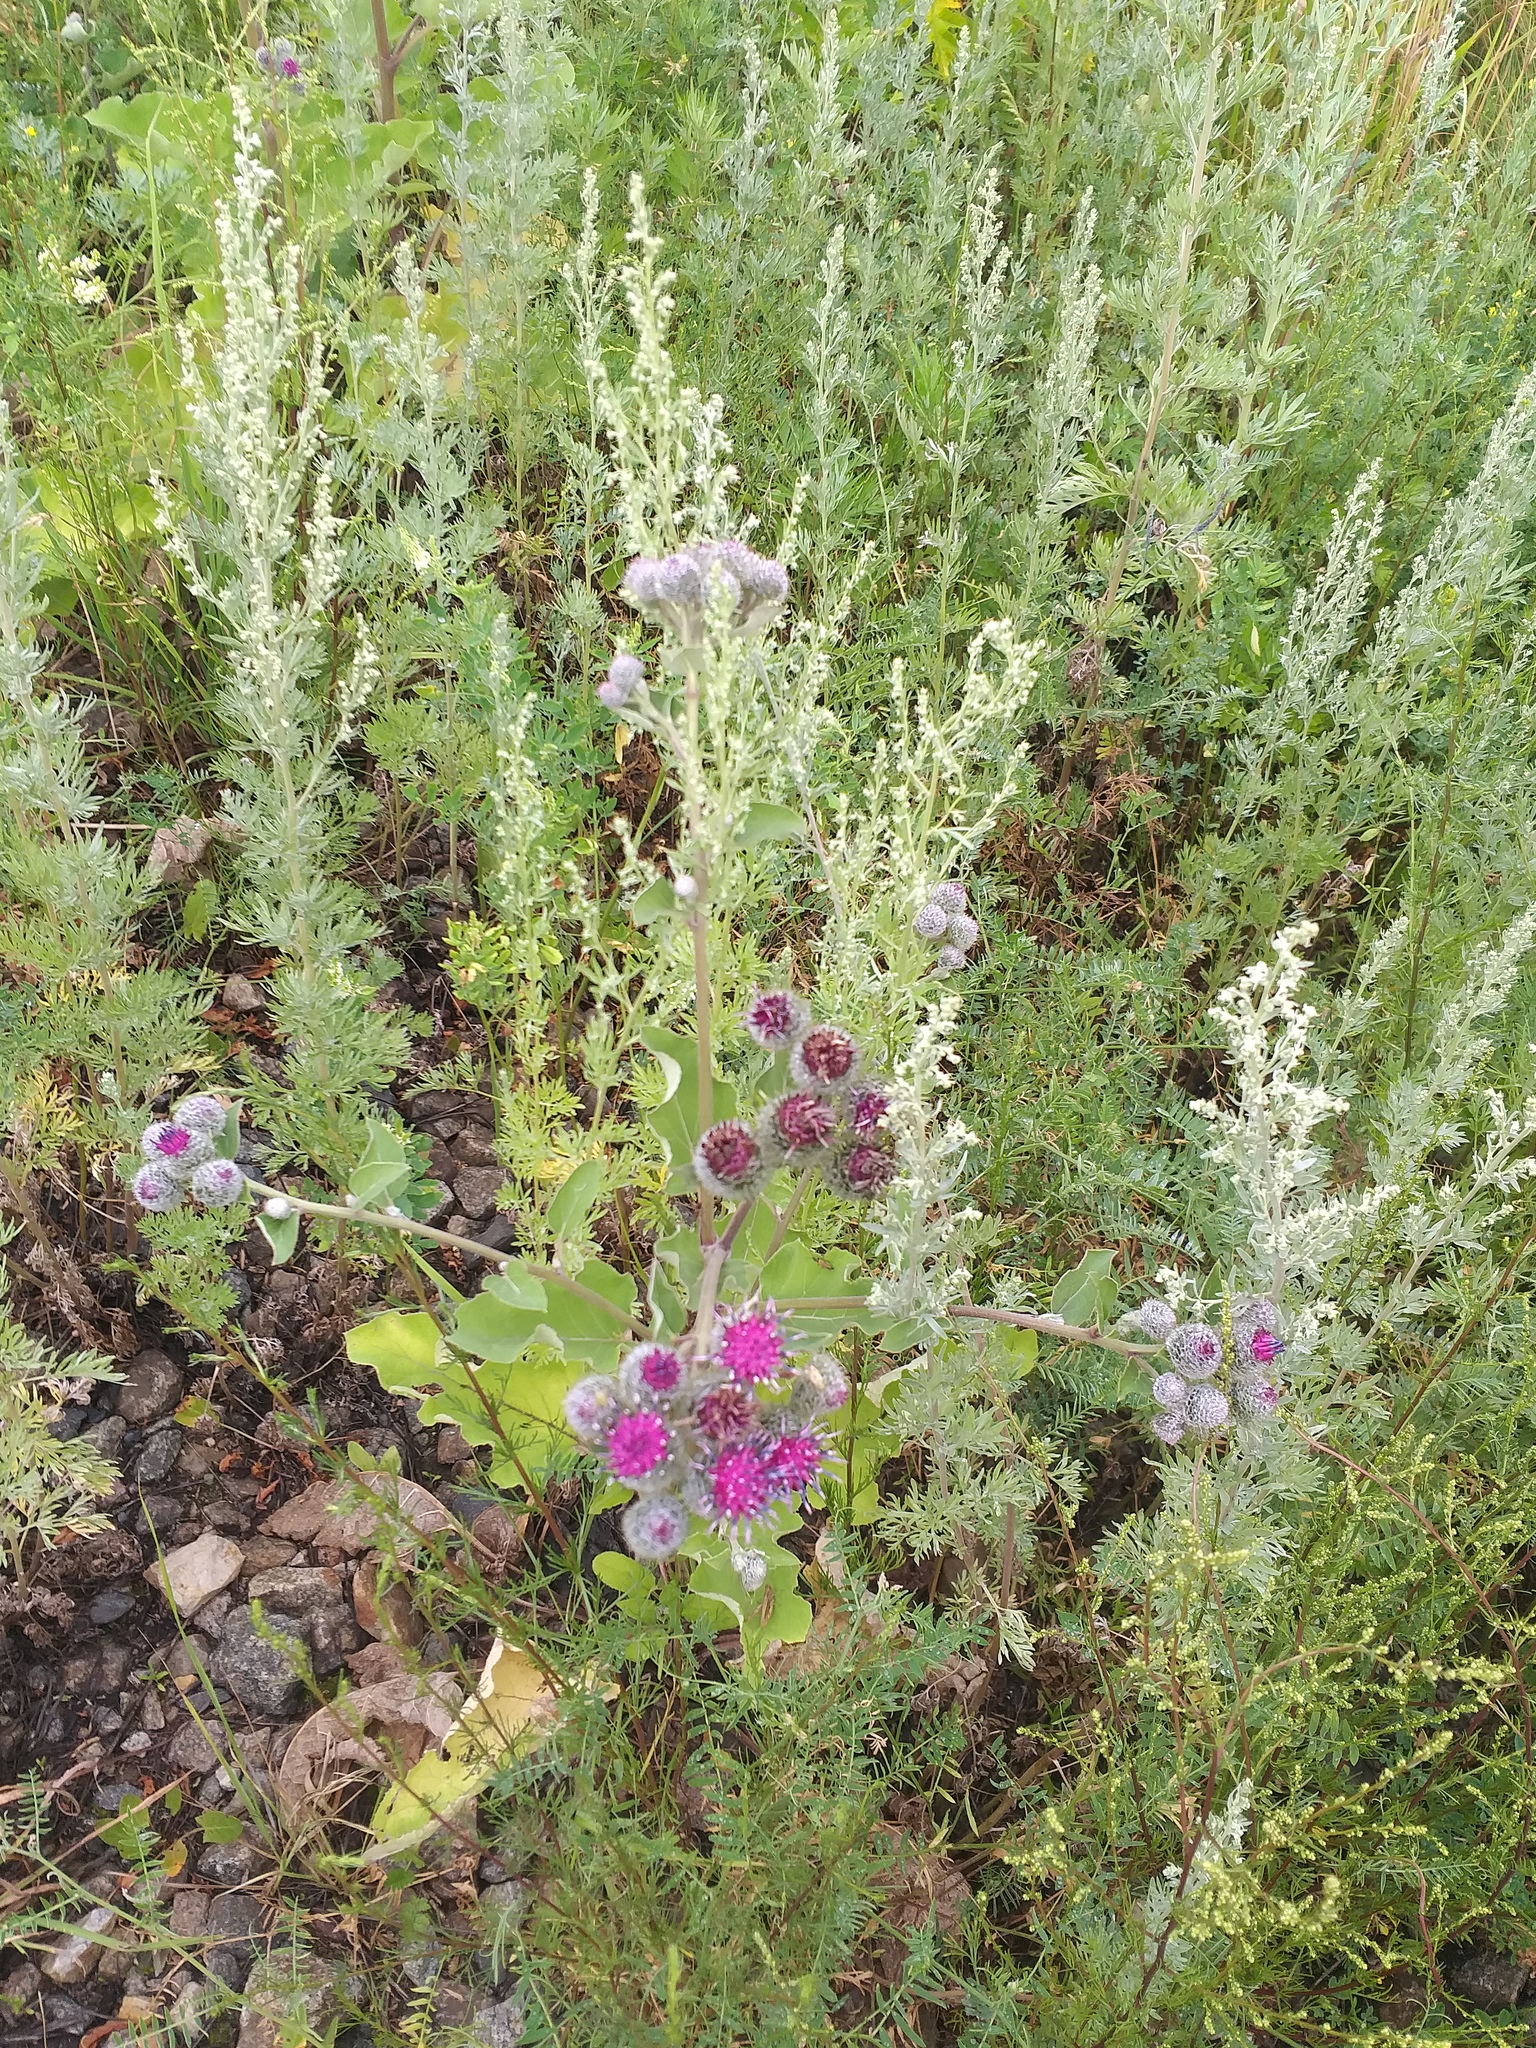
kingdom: Plantae
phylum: Tracheophyta
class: Magnoliopsida
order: Asterales
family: Asteraceae
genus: Arctium
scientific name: Arctium tomentosum
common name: Woolly burdock
